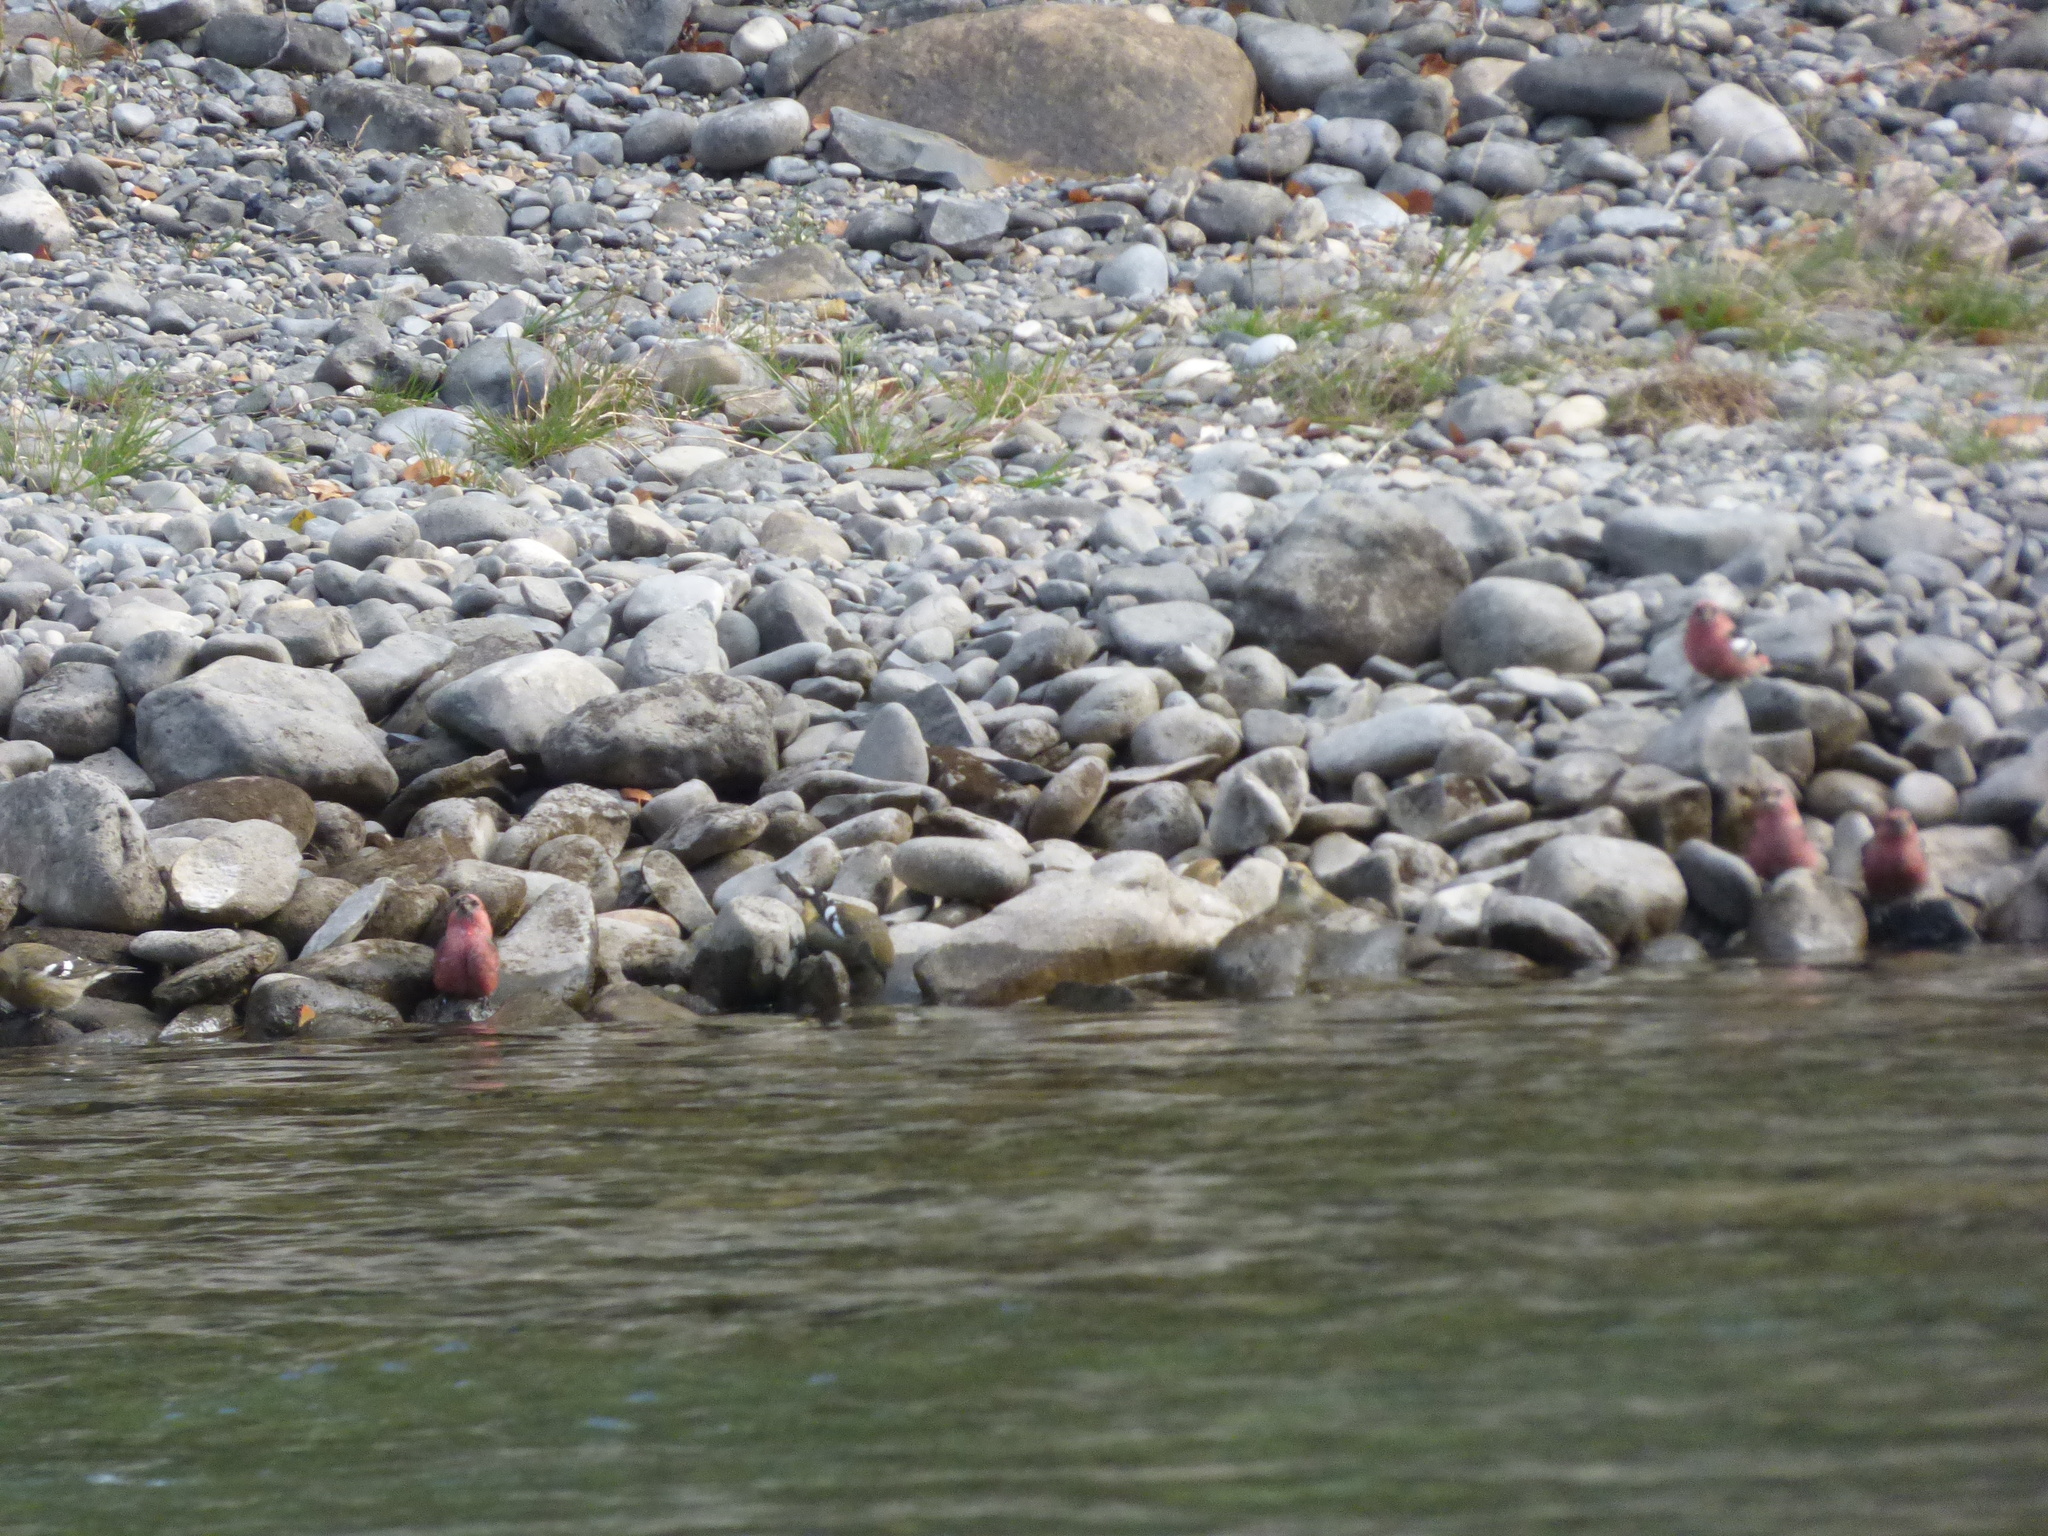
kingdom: Animalia
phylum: Chordata
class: Aves
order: Passeriformes
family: Fringillidae
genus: Loxia
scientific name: Loxia leucoptera
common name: Two-barred crossbill
